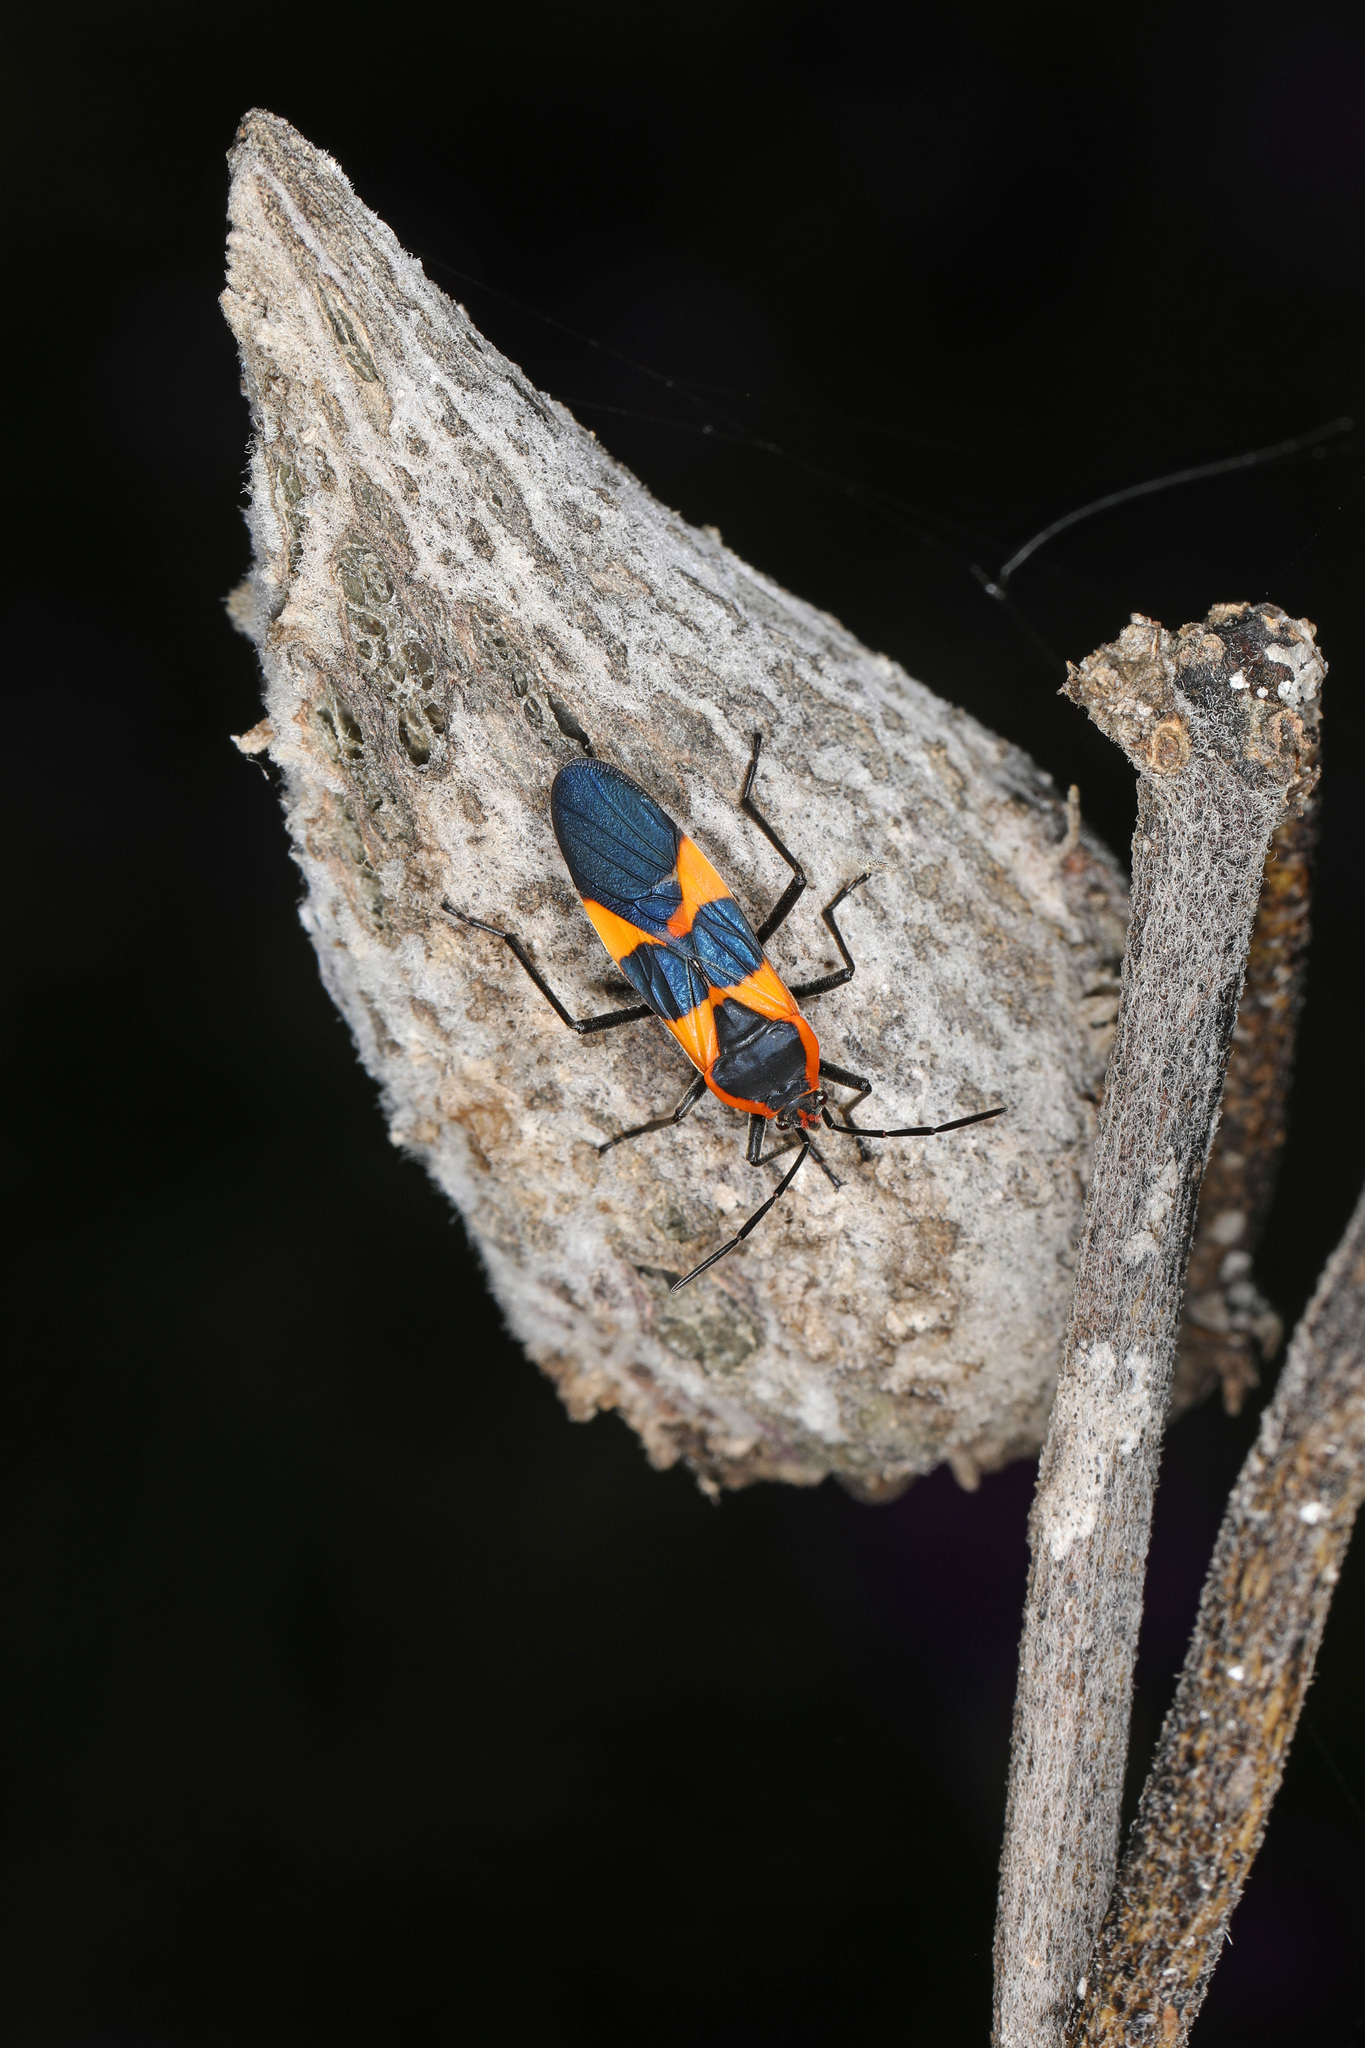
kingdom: Animalia
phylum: Arthropoda
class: Insecta
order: Hemiptera
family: Lygaeidae
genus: Oncopeltus
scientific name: Oncopeltus fasciatus
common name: Large milkweed bug
